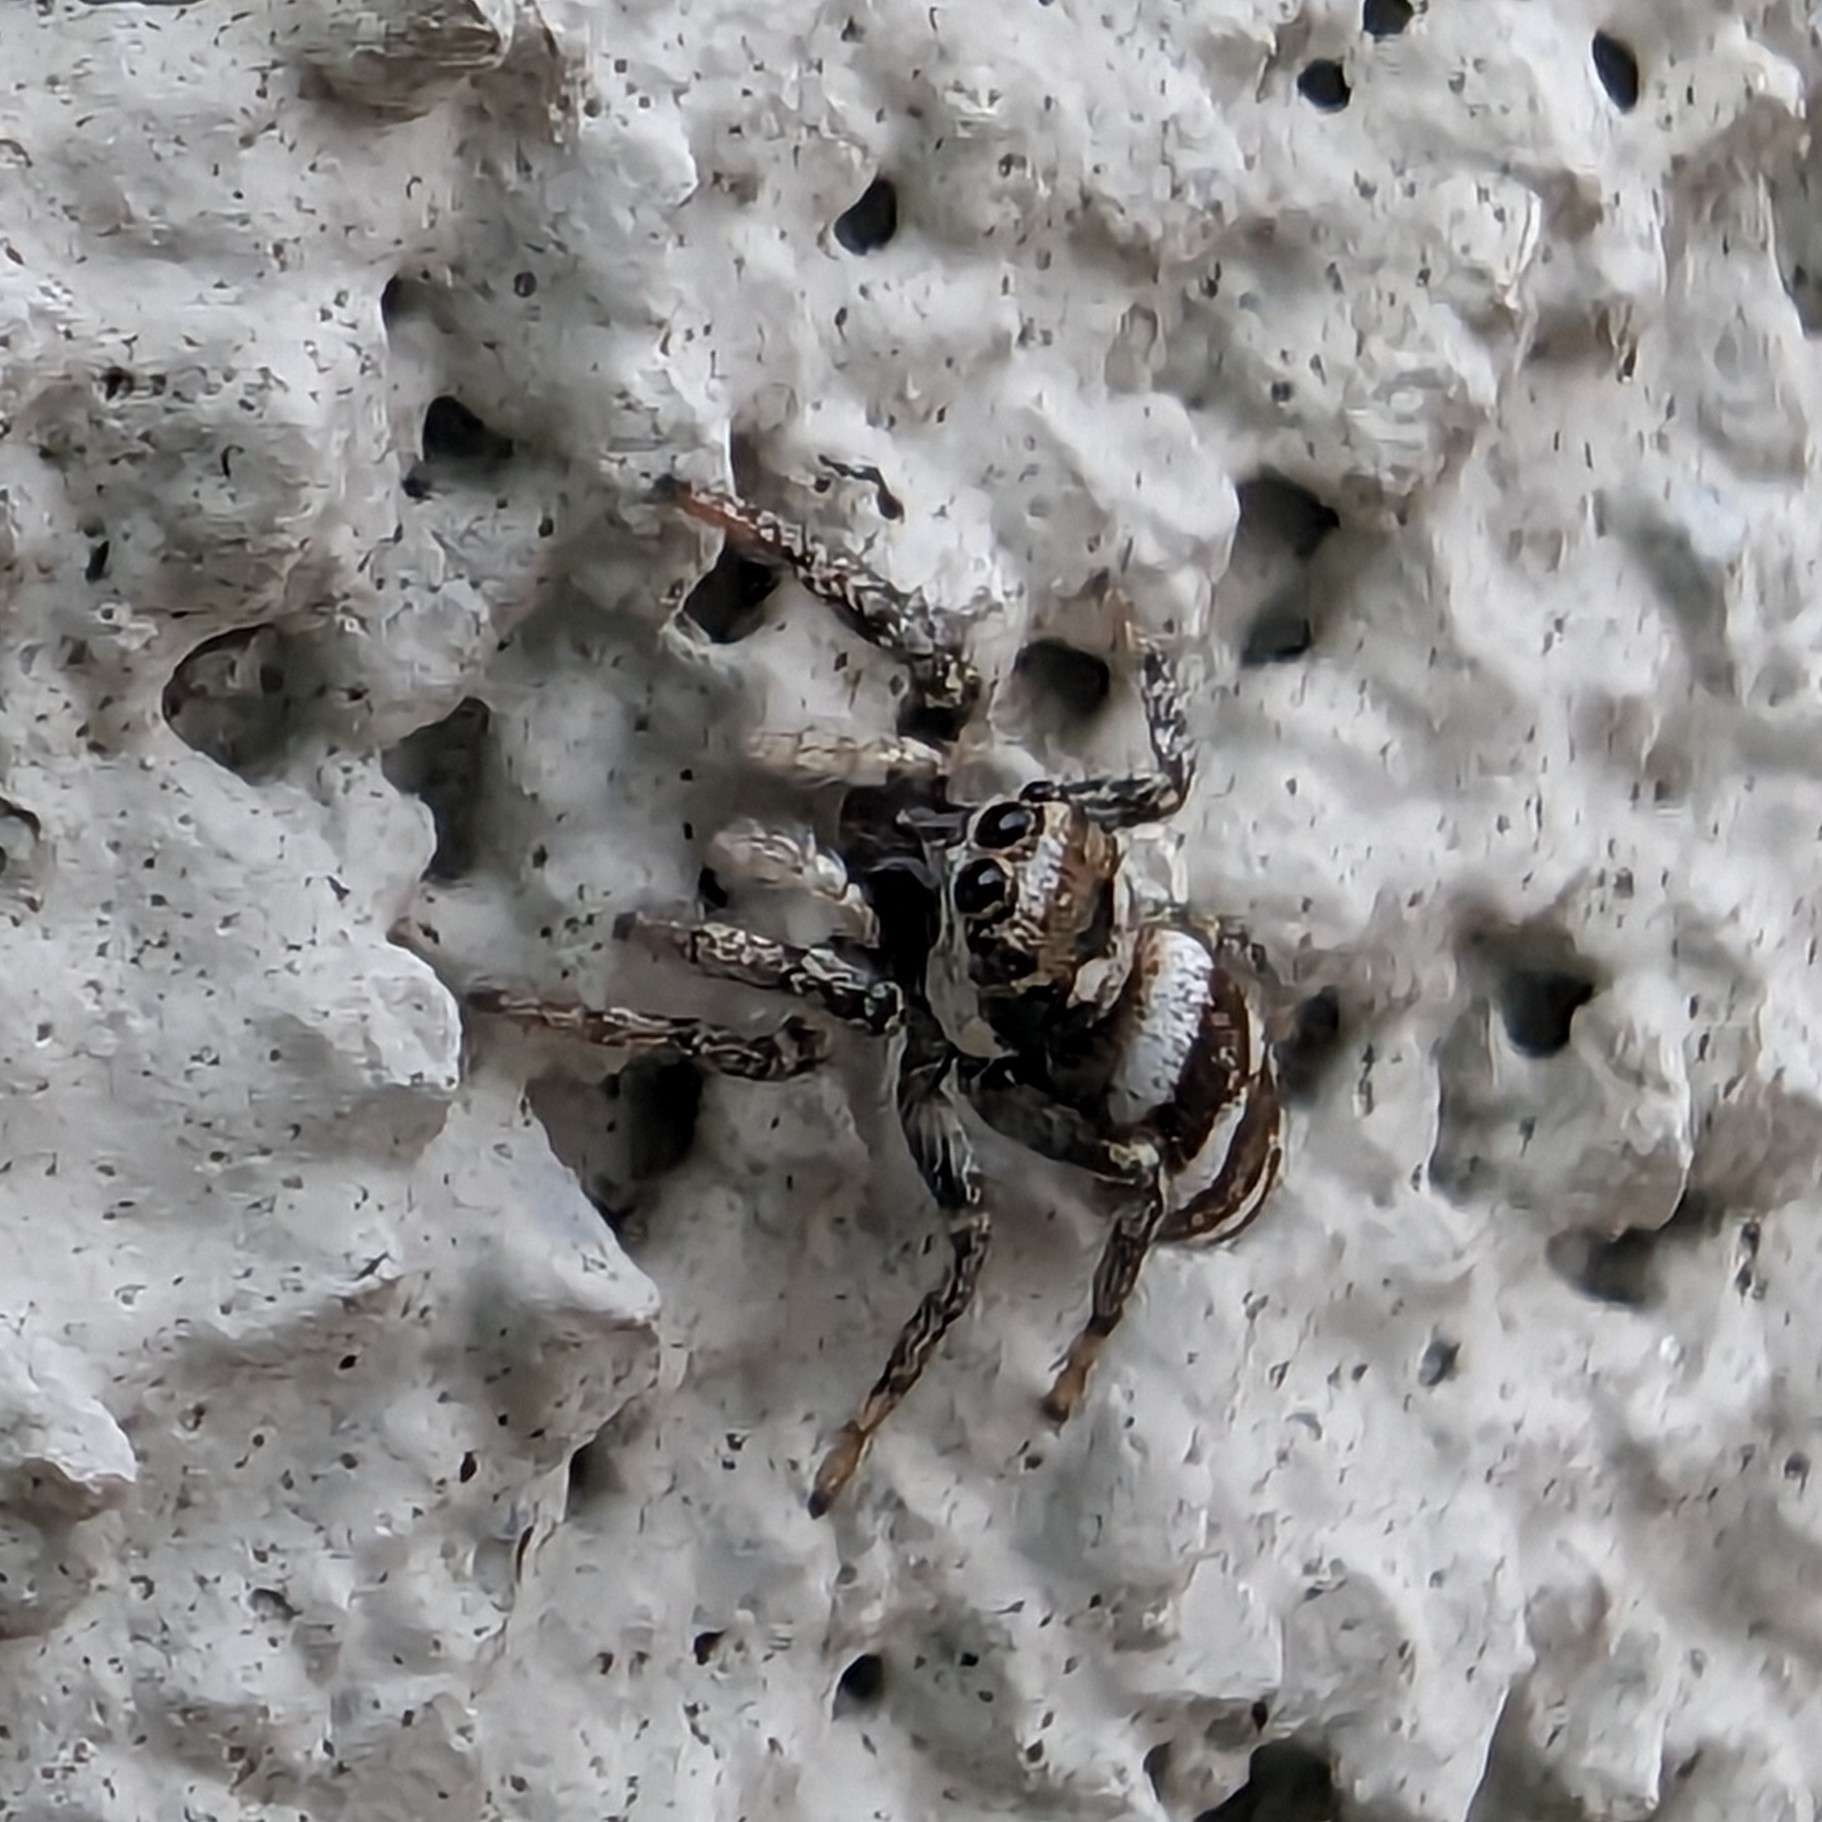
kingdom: Animalia
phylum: Arthropoda
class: Arachnida
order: Araneae
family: Salticidae
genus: Salticus
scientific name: Salticus scenicus
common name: Zebra jumper
